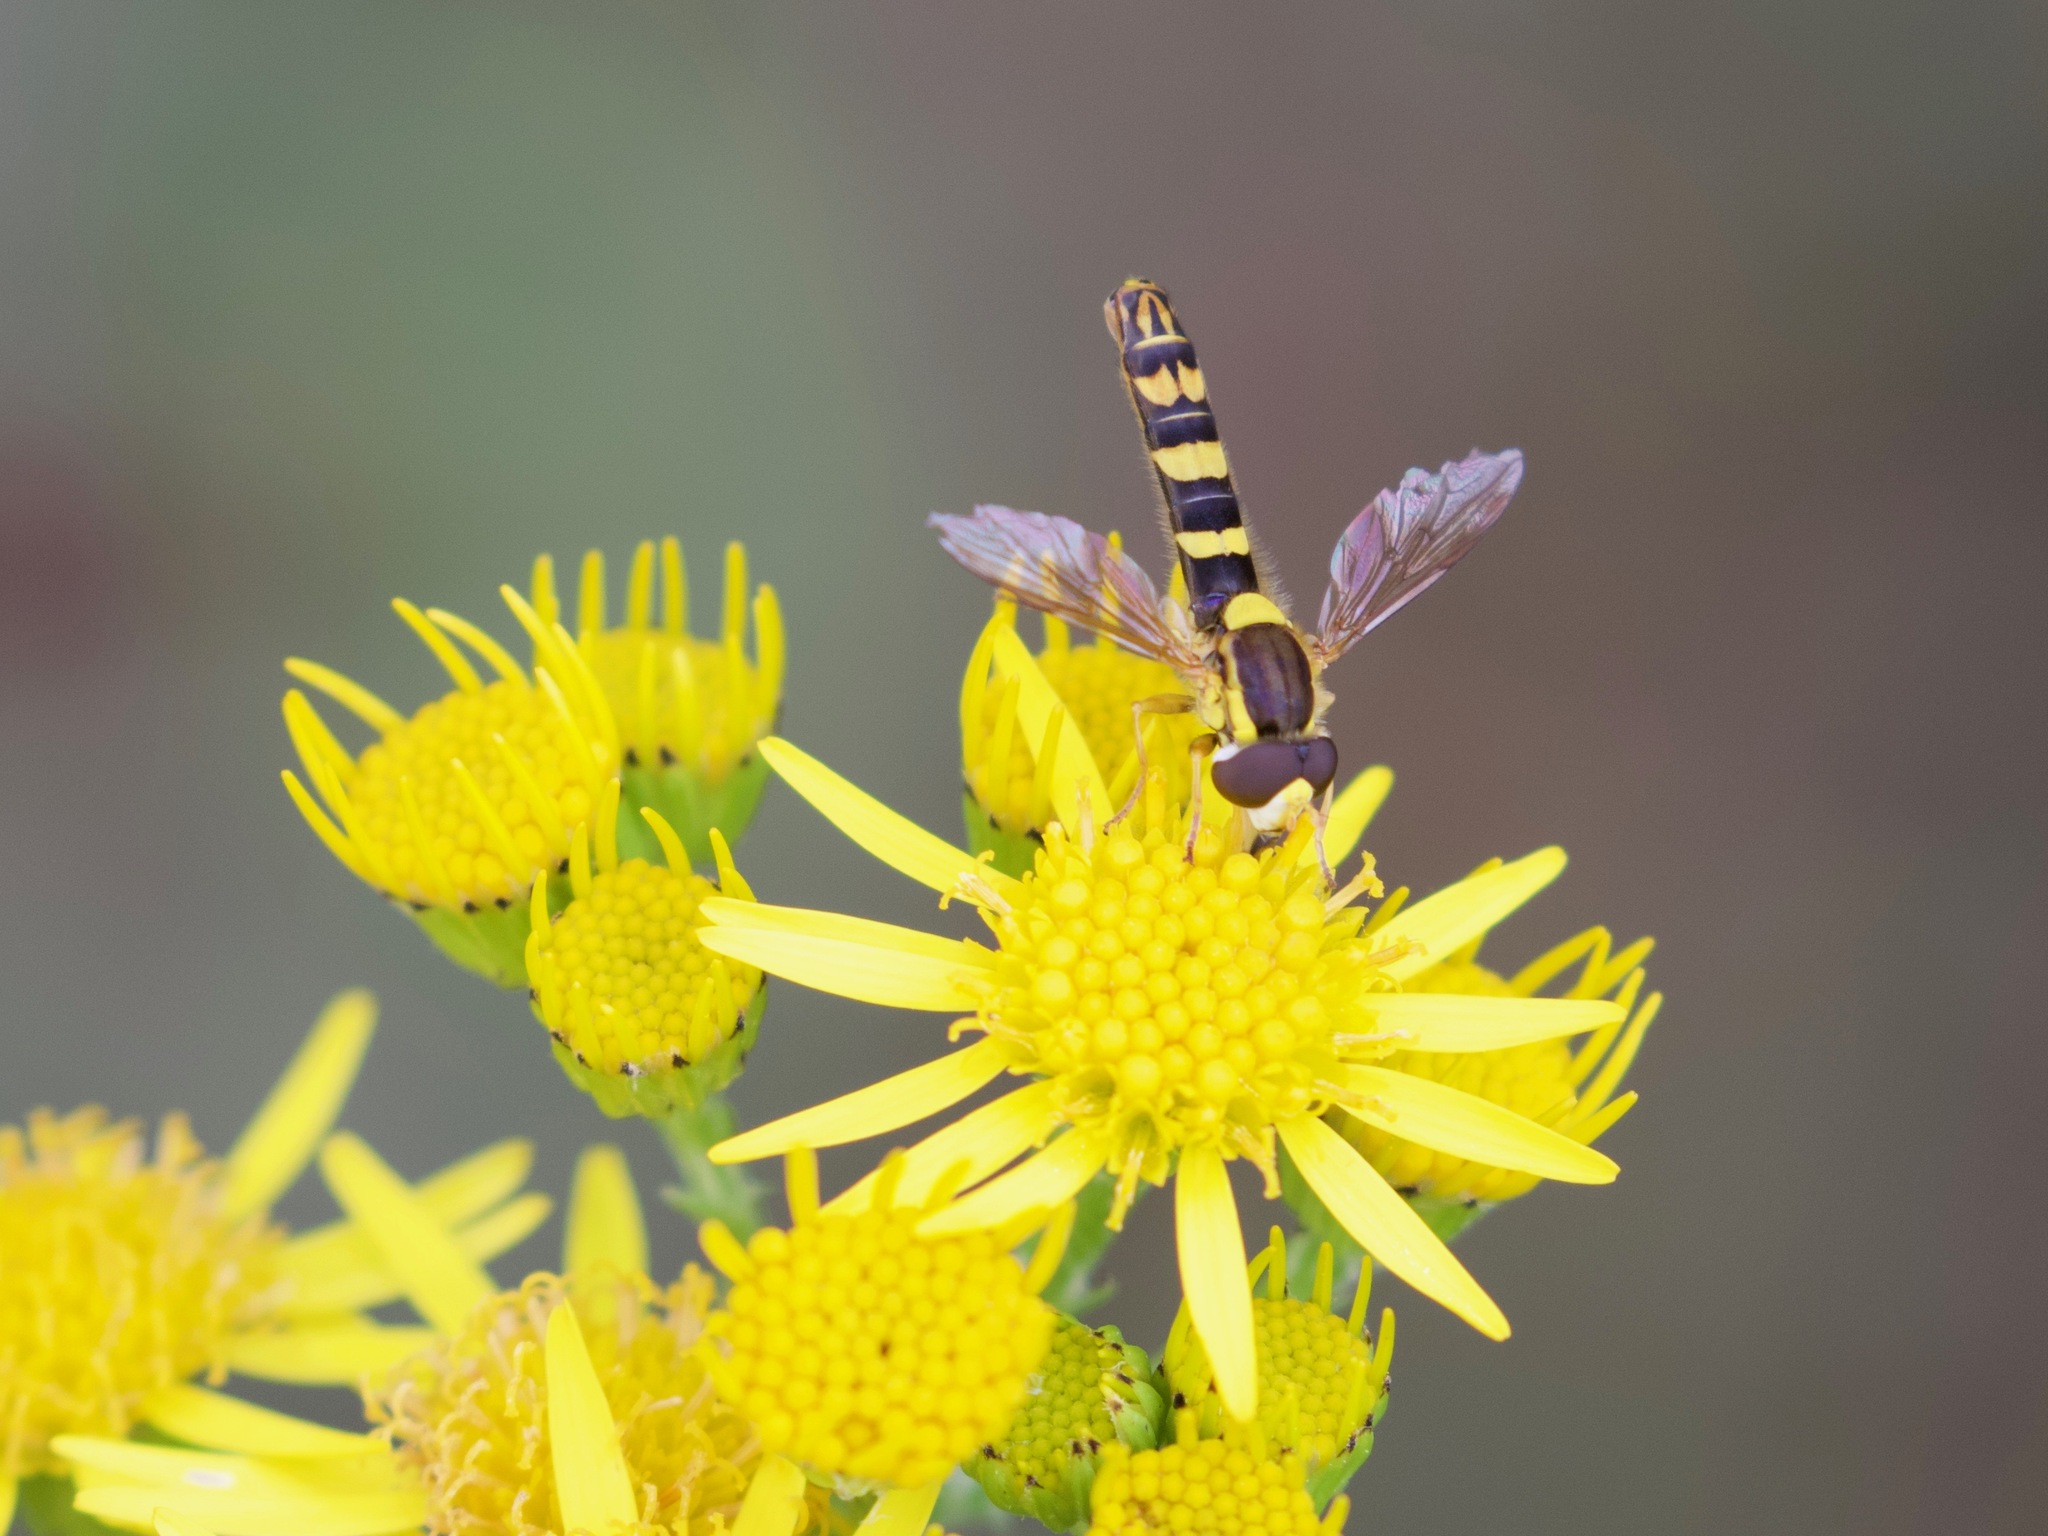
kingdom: Animalia
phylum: Arthropoda
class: Insecta
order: Diptera
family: Syrphidae
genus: Sphaerophoria
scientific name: Sphaerophoria scripta
